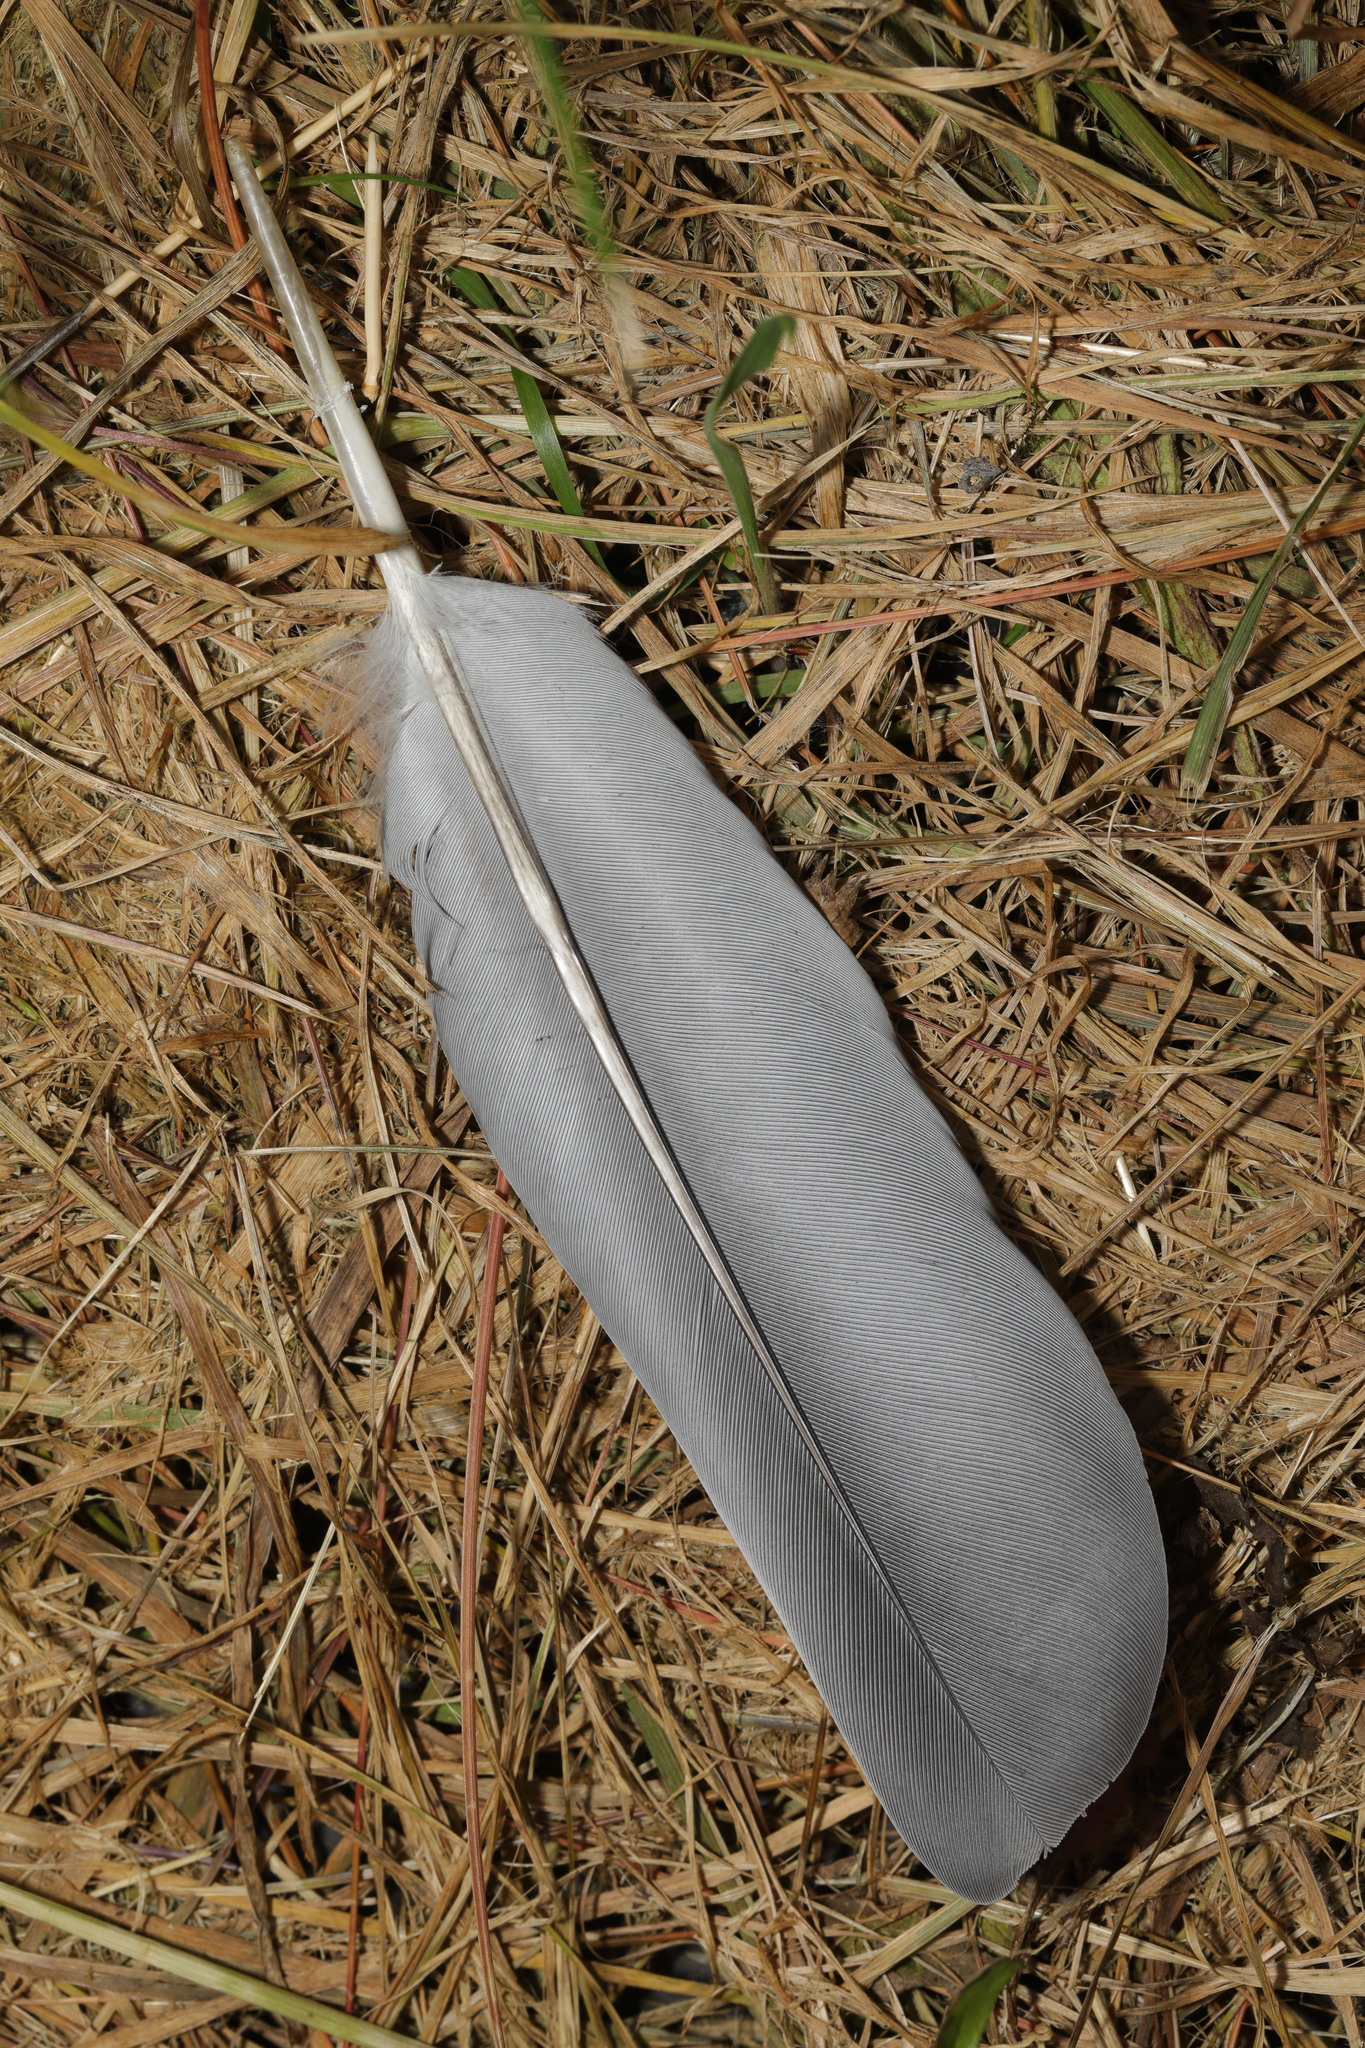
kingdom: Animalia
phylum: Chordata
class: Aves
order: Columbiformes
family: Columbidae
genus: Columba
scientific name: Columba palumbus
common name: Common wood pigeon
